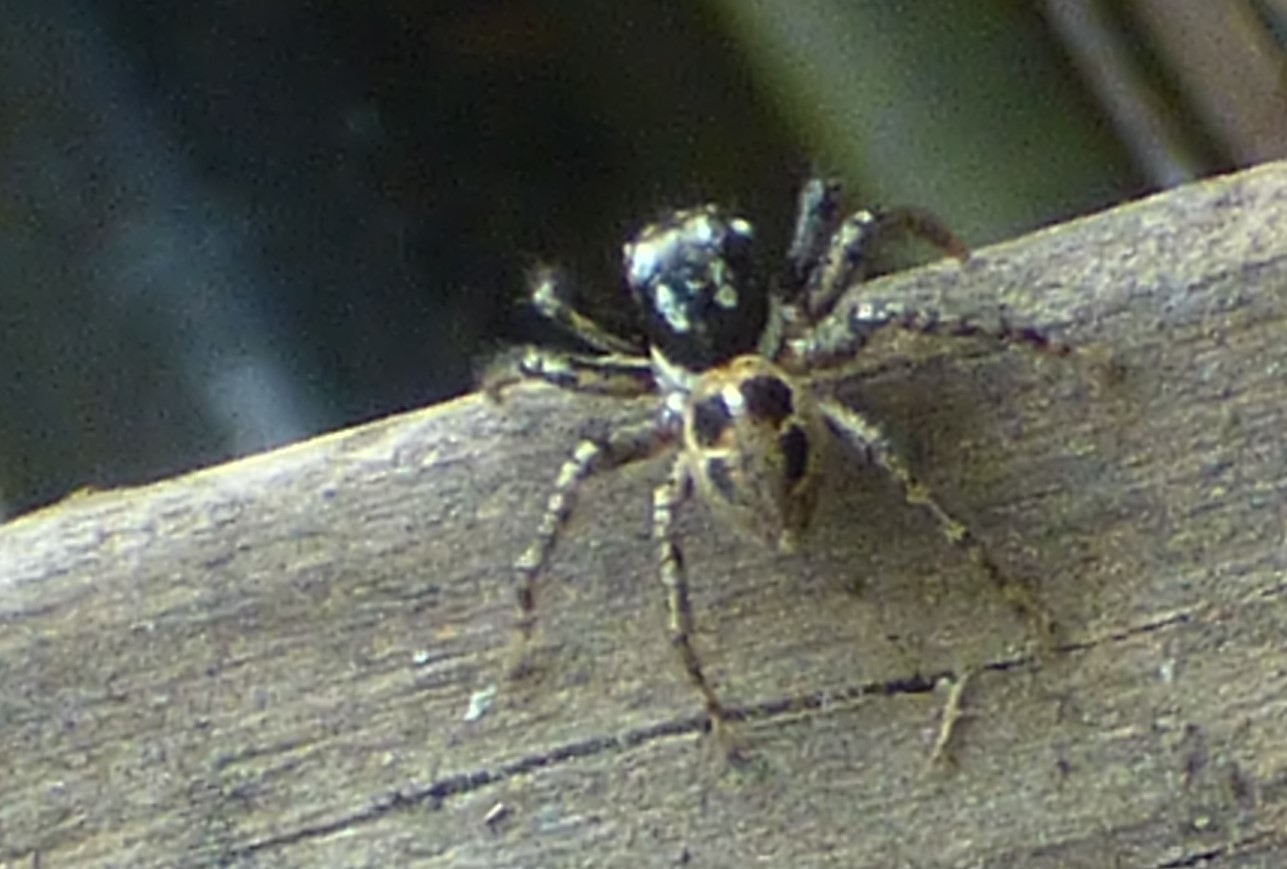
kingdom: Animalia
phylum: Arthropoda
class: Arachnida
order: Araneae
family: Salticidae
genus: Anasaitis
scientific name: Anasaitis canosa
